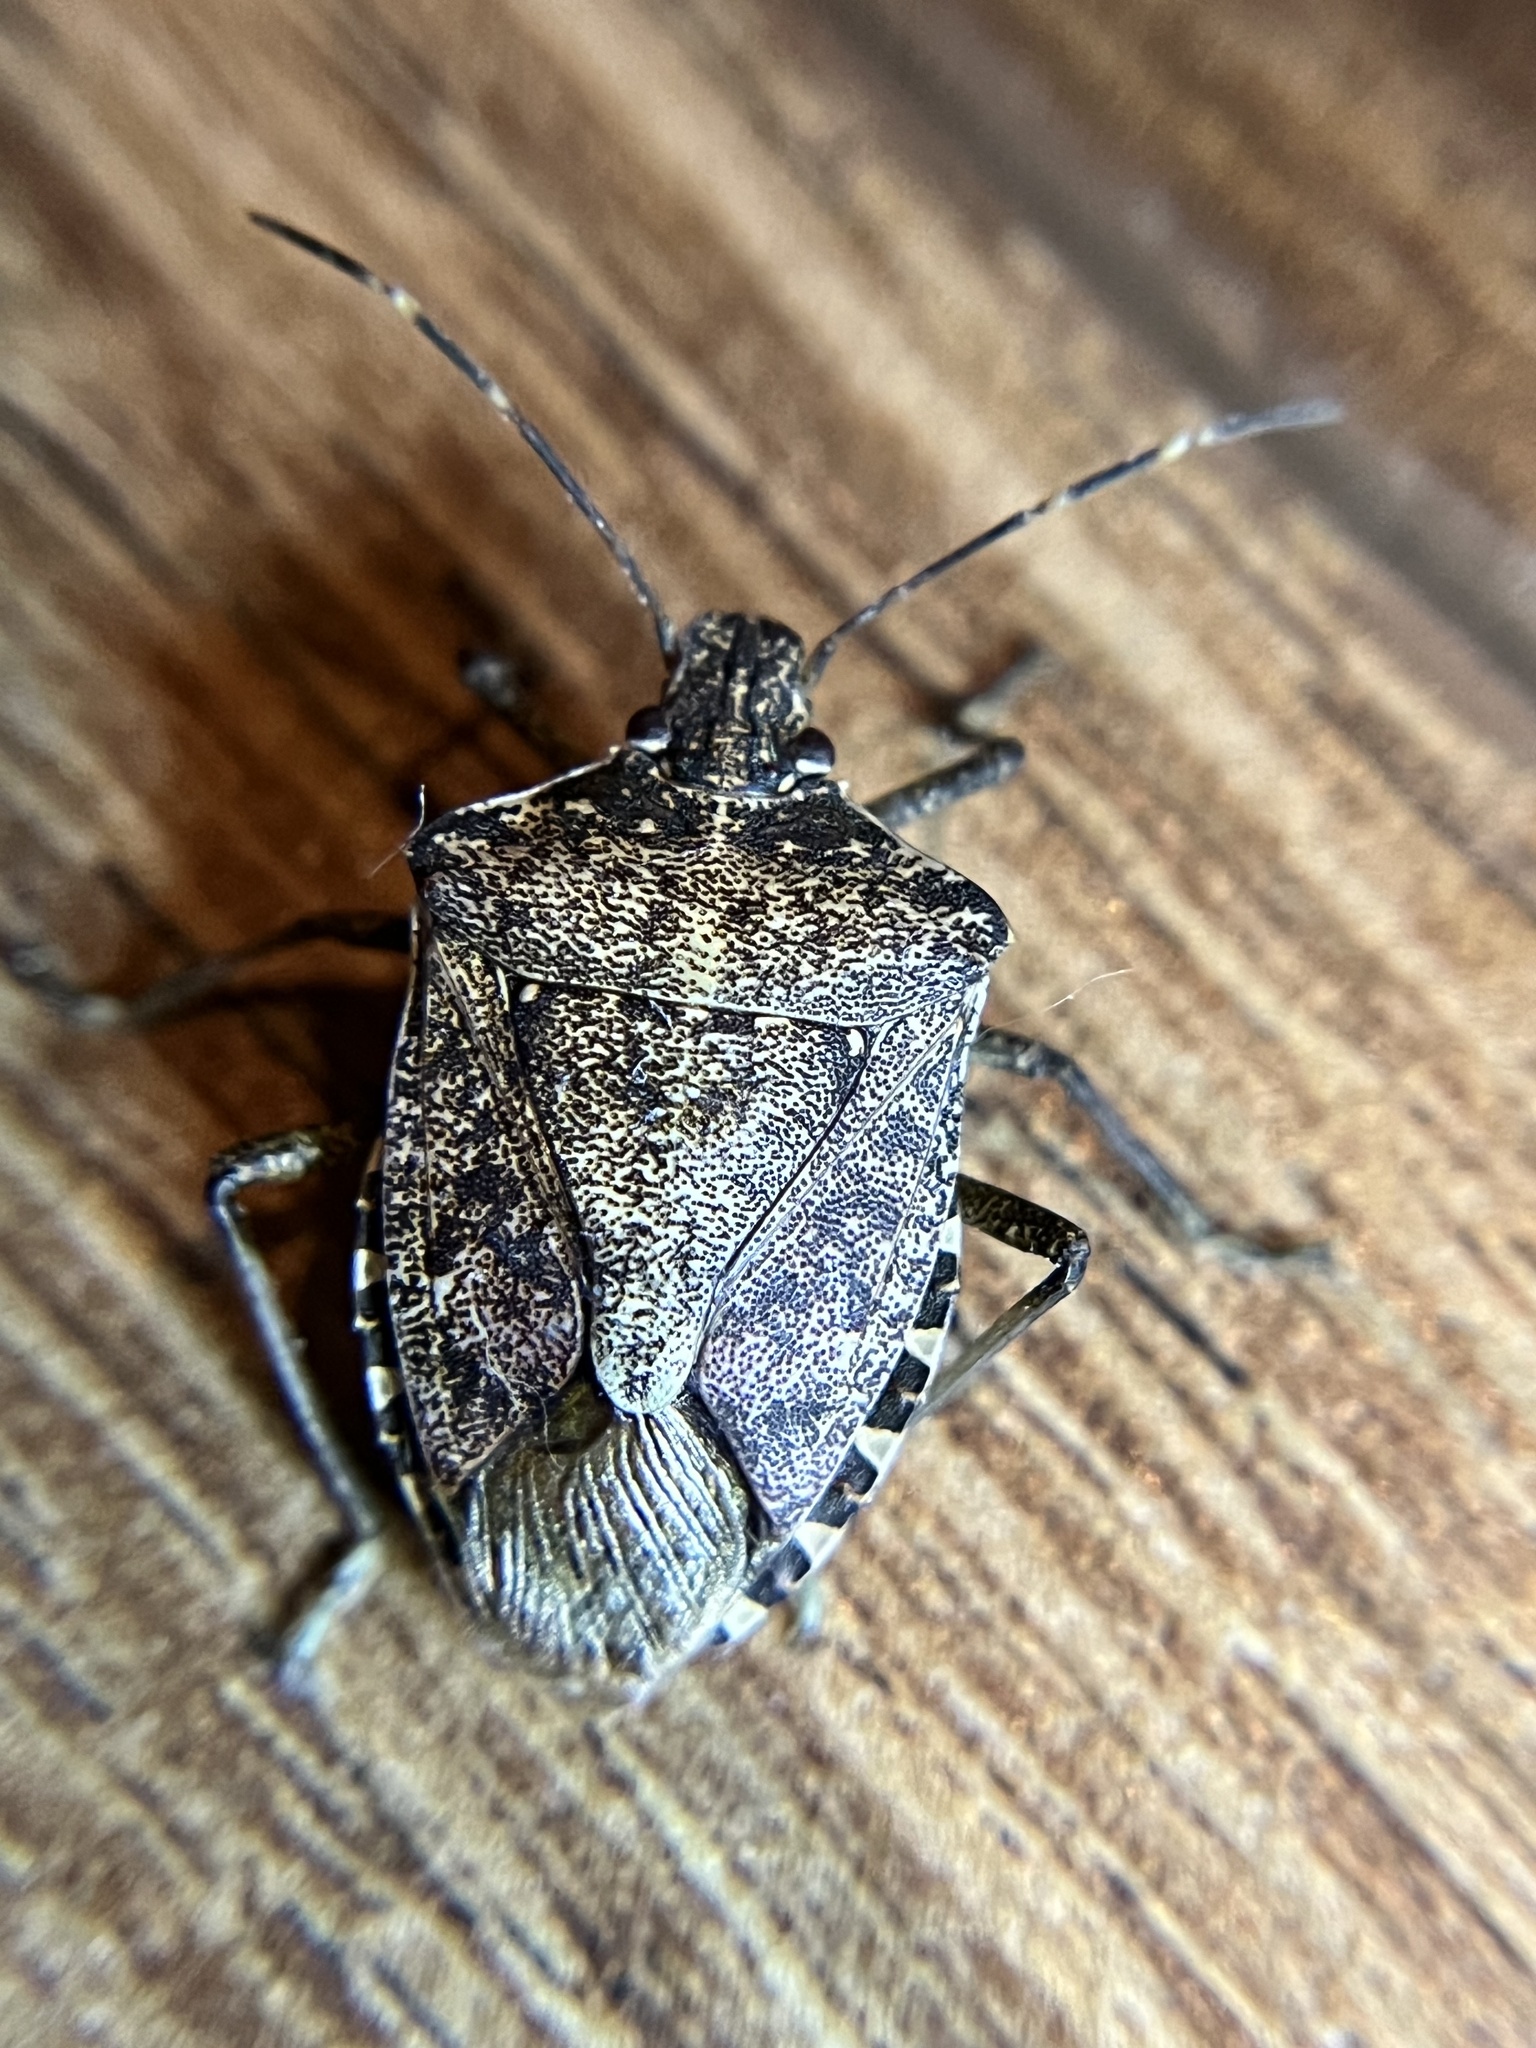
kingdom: Animalia
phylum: Arthropoda
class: Insecta
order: Hemiptera
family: Pentatomidae
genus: Halyomorpha
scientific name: Halyomorpha halys
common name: Brown marmorated stink bug
